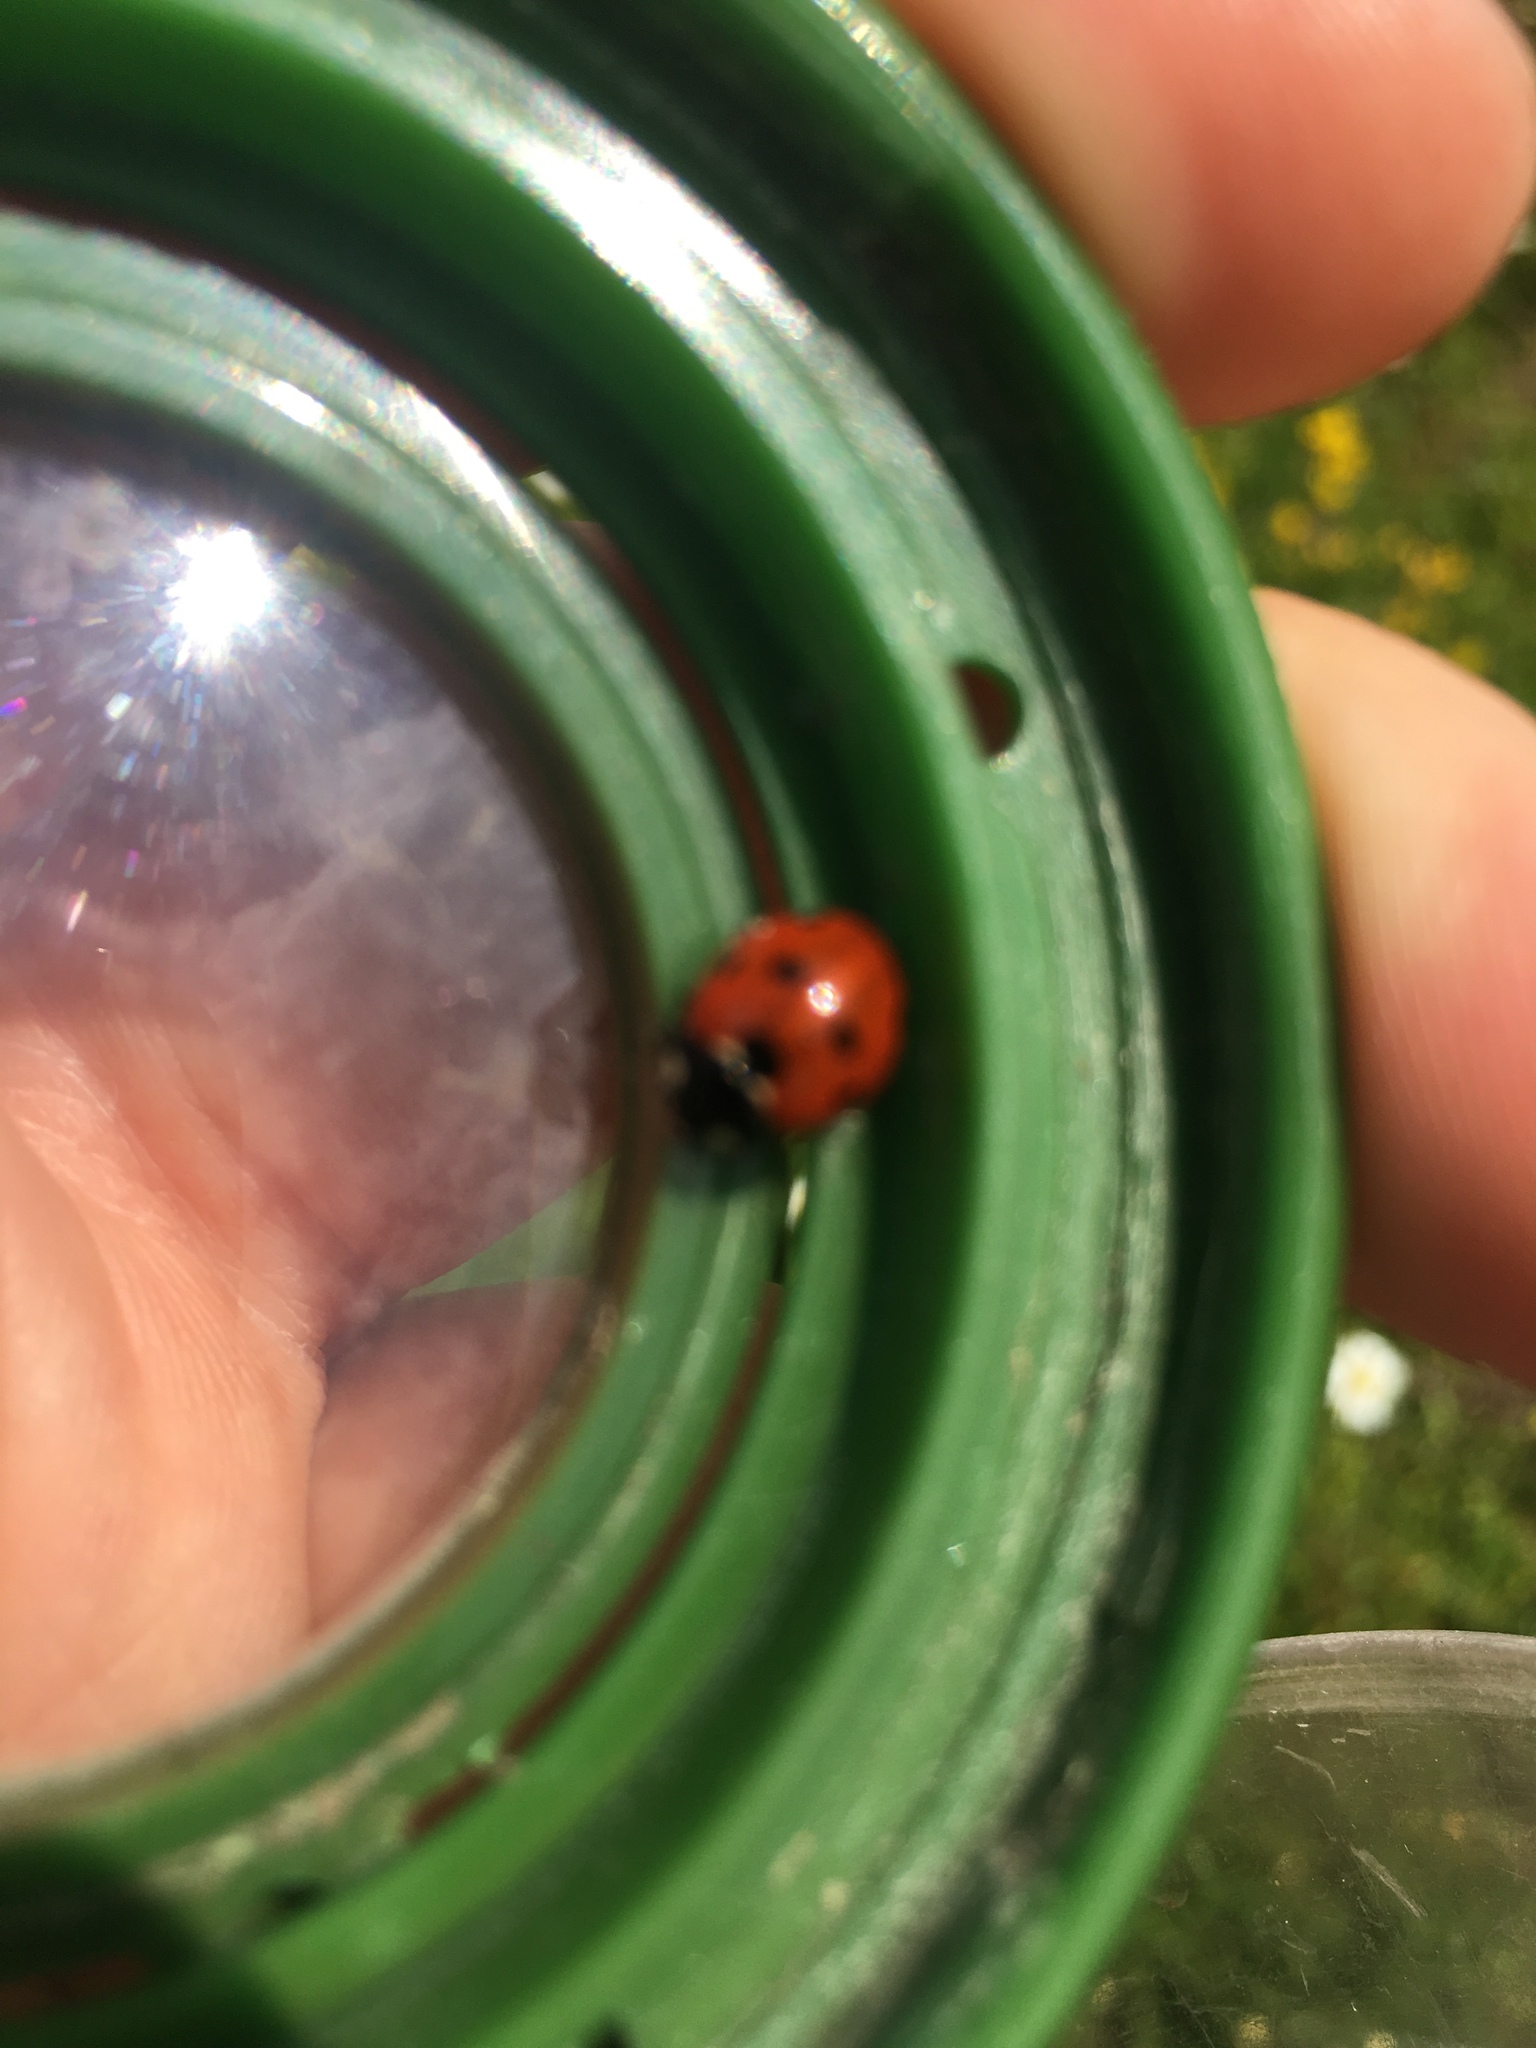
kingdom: Animalia
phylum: Arthropoda
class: Insecta
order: Coleoptera
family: Coccinellidae
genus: Coccinella
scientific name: Coccinella septempunctata
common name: Sevenspotted lady beetle
